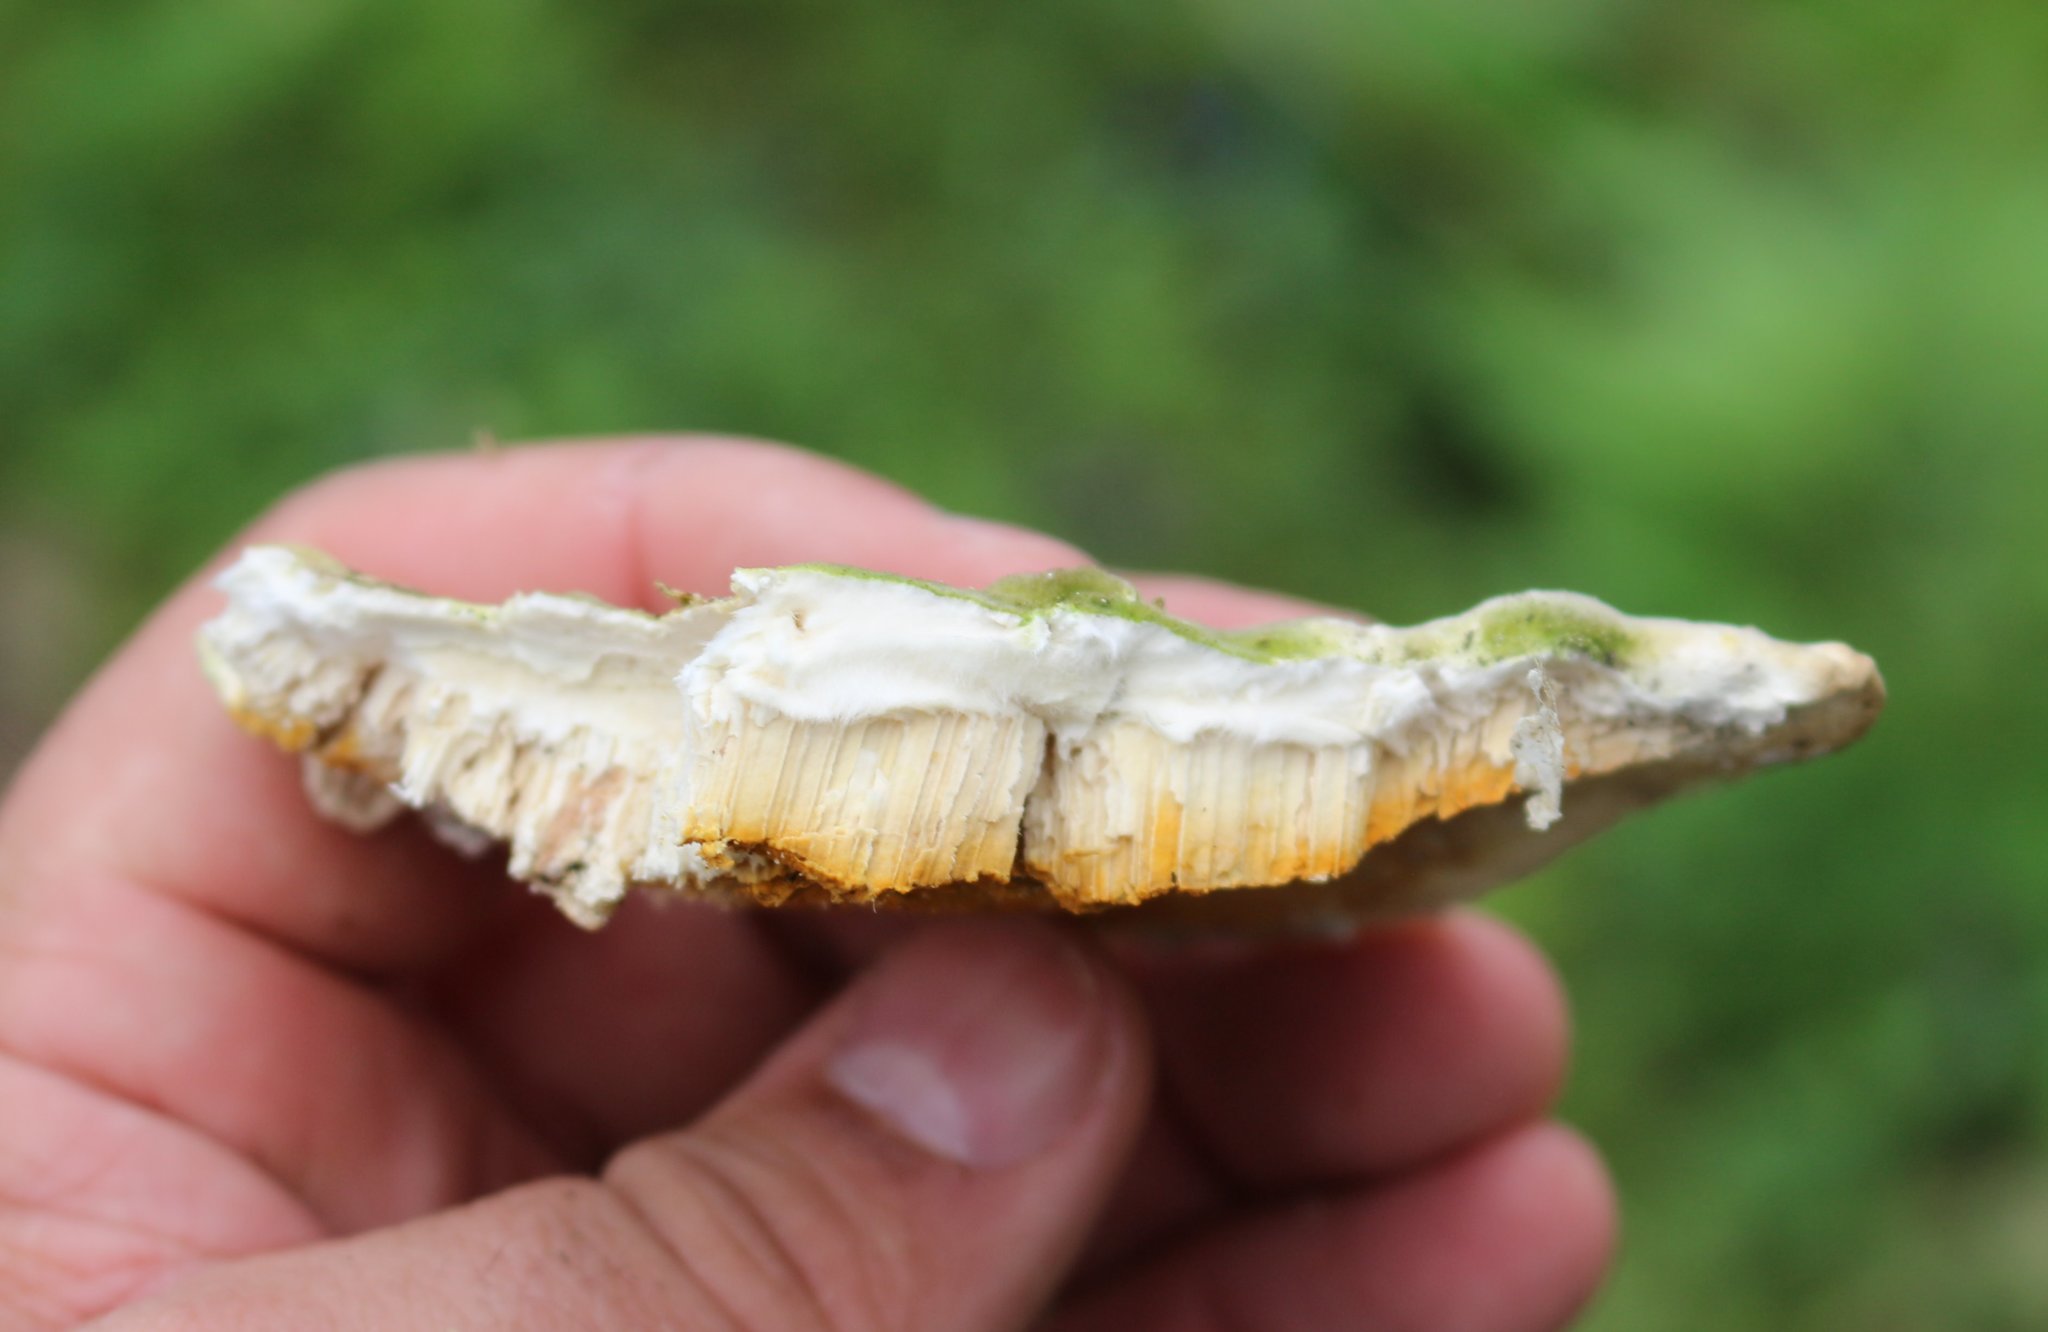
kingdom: Fungi
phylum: Basidiomycota
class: Agaricomycetes
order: Polyporales
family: Polyporaceae
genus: Trametes
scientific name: Trametes gibbosa
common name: Lumpy bracket
